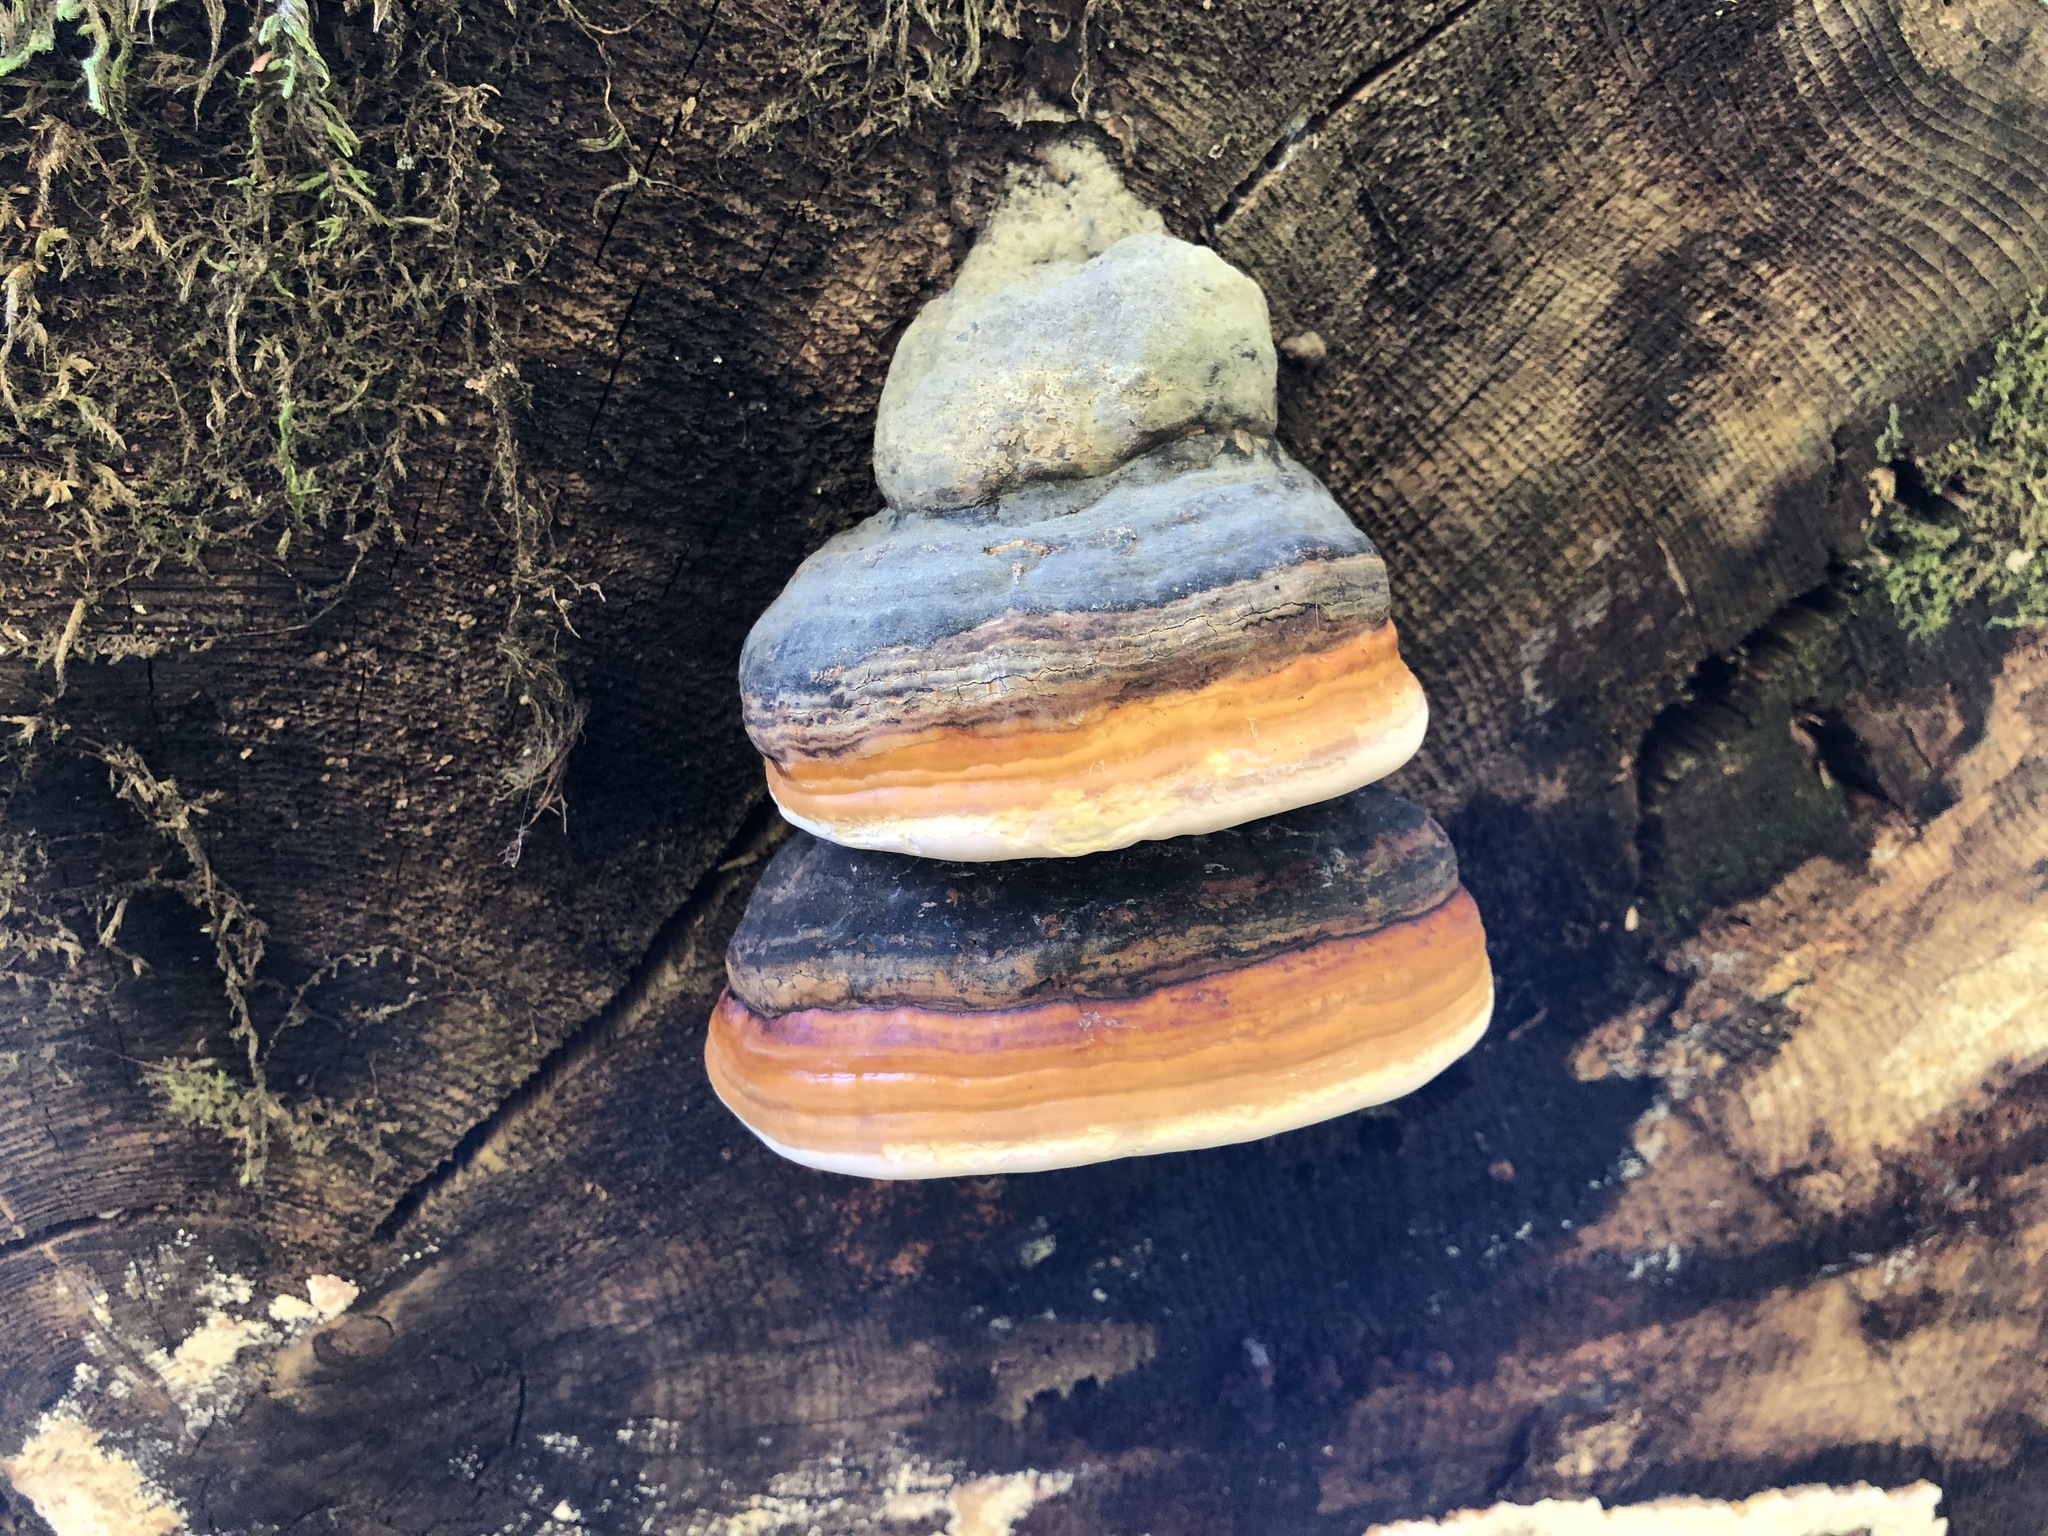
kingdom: Fungi
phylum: Basidiomycota
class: Agaricomycetes
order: Polyporales
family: Fomitopsidaceae
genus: Fomitopsis
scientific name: Fomitopsis pinicola
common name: Red-belted bracket
